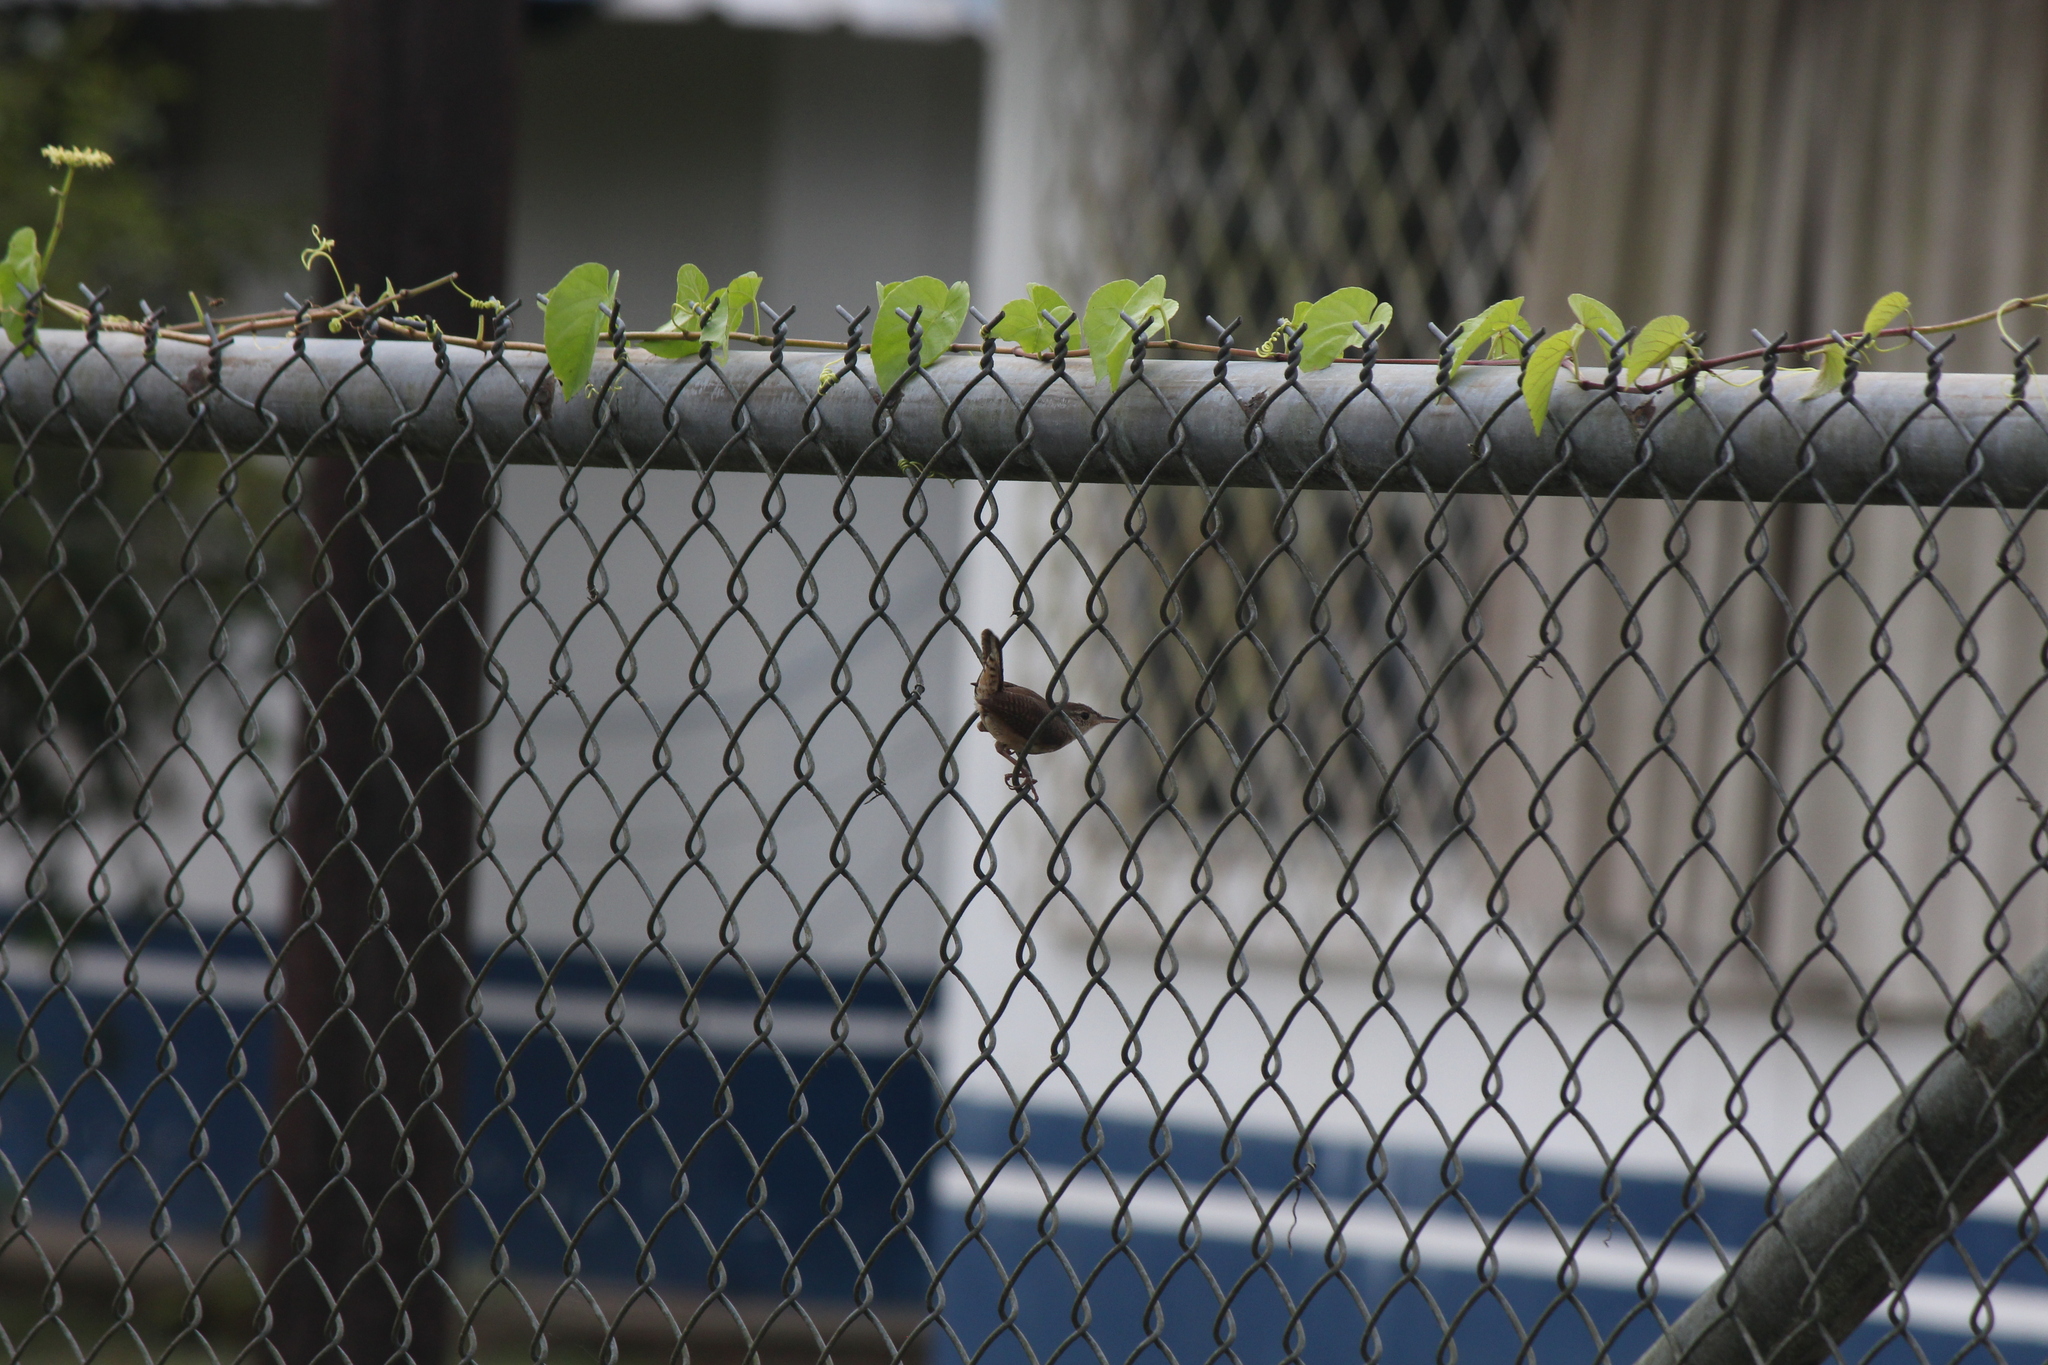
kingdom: Animalia
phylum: Chordata
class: Aves
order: Passeriformes
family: Troglodytidae
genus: Troglodytes
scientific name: Troglodytes aedon
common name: House wren
